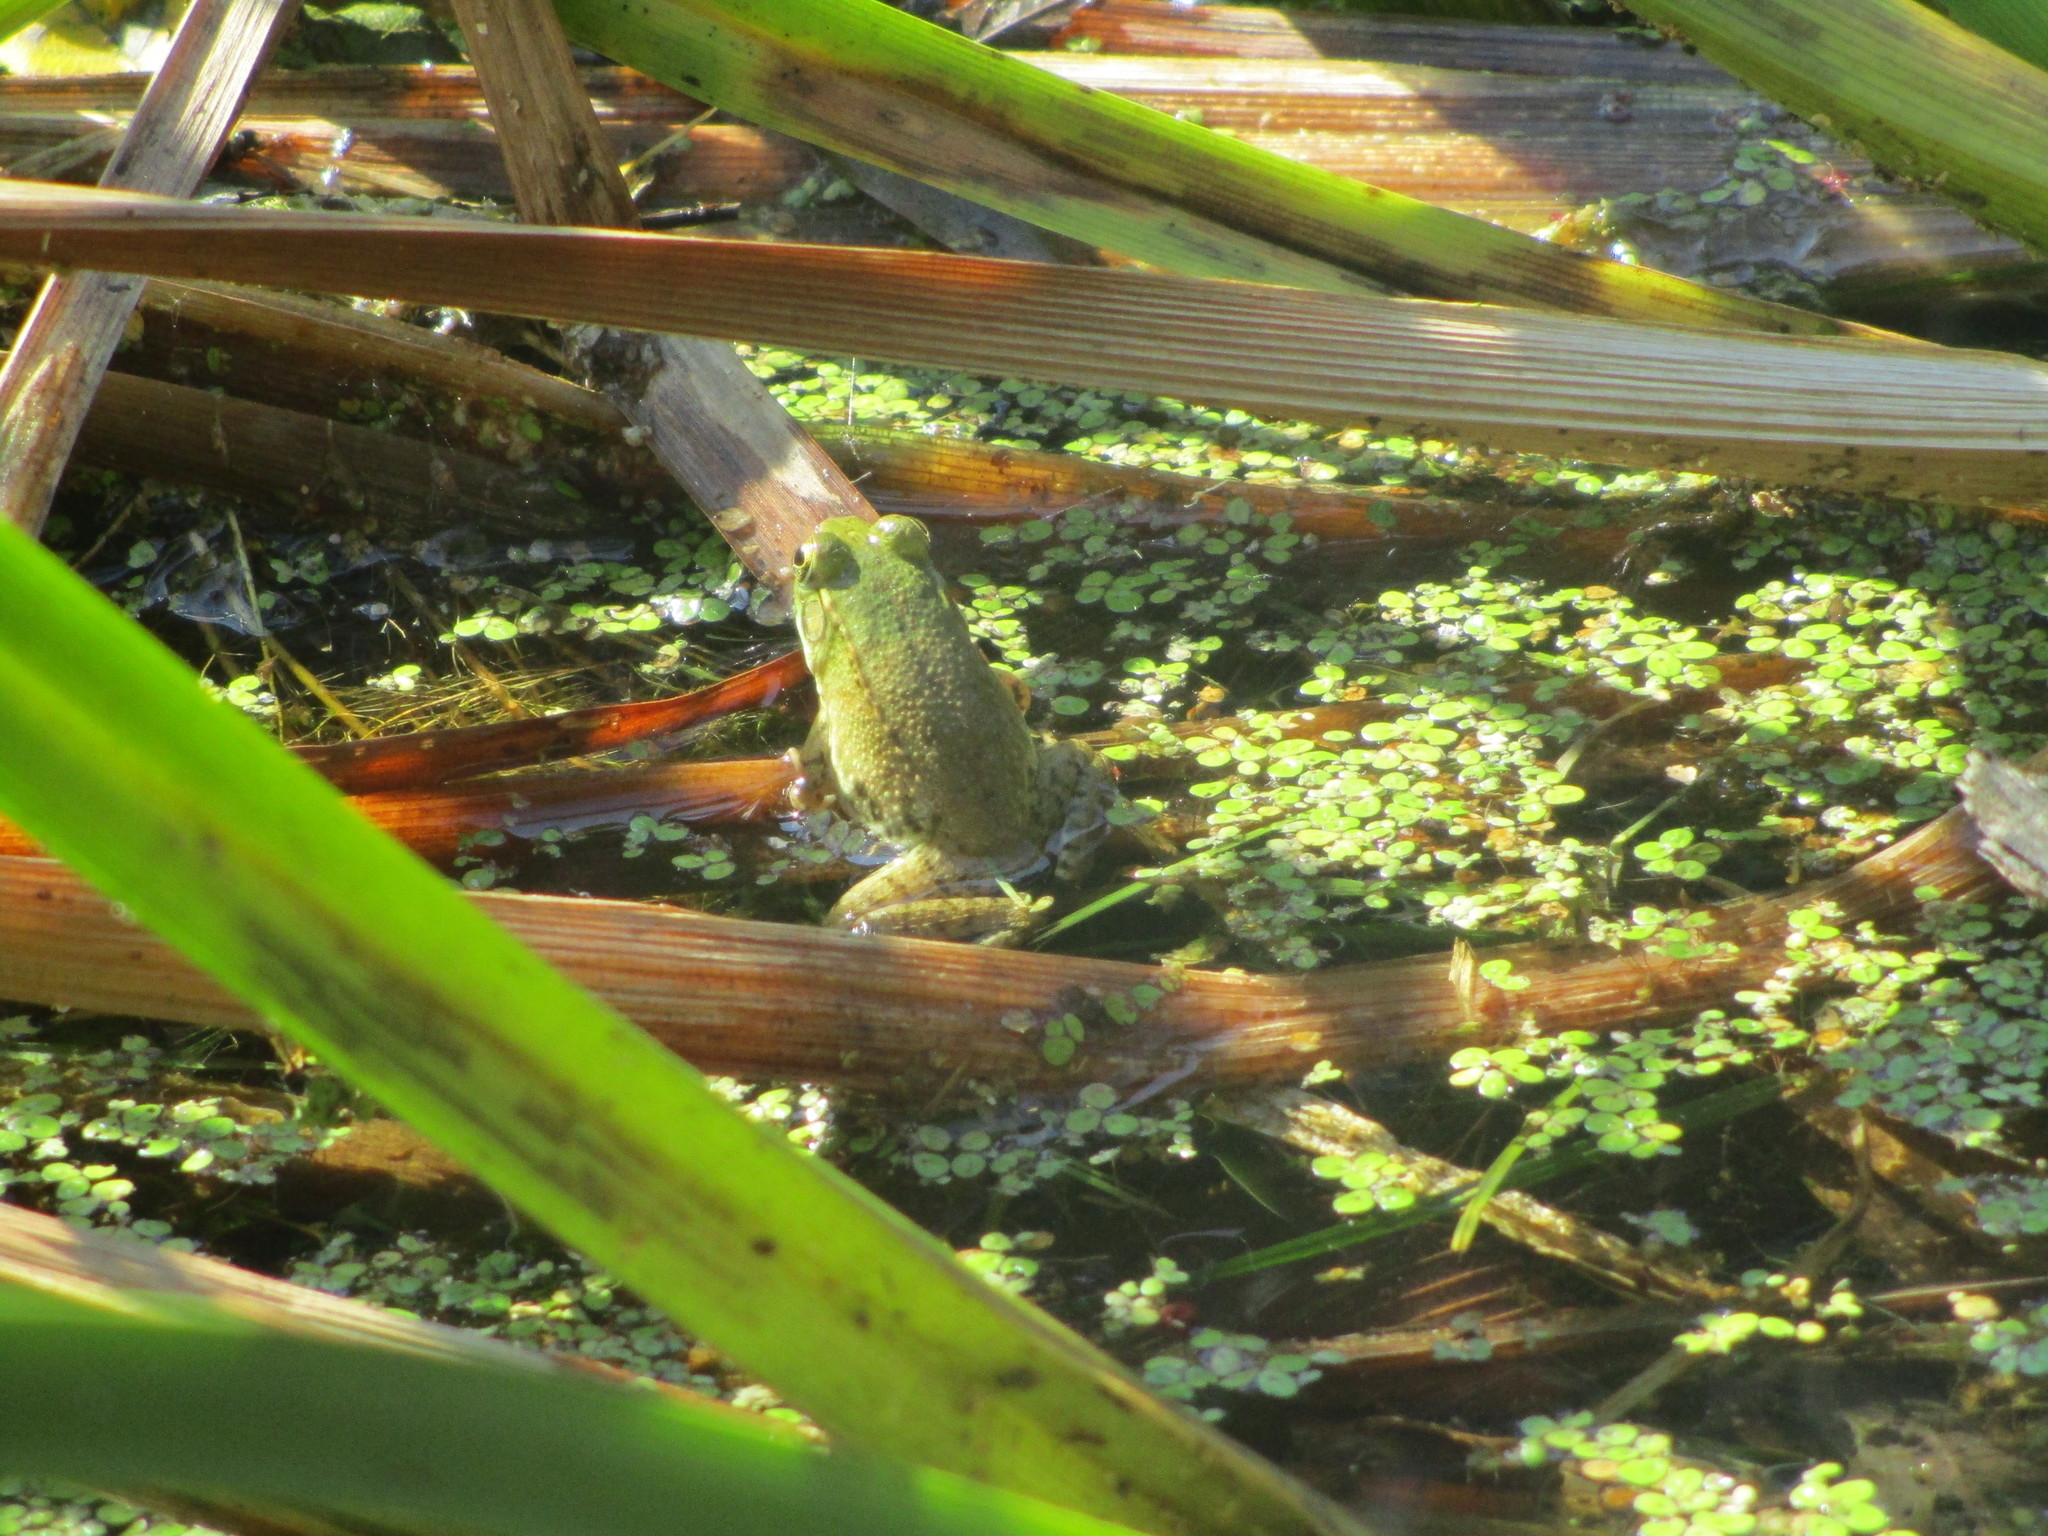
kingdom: Animalia
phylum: Chordata
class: Amphibia
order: Anura
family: Ranidae
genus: Lithobates
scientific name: Lithobates clamitans
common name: Green frog
